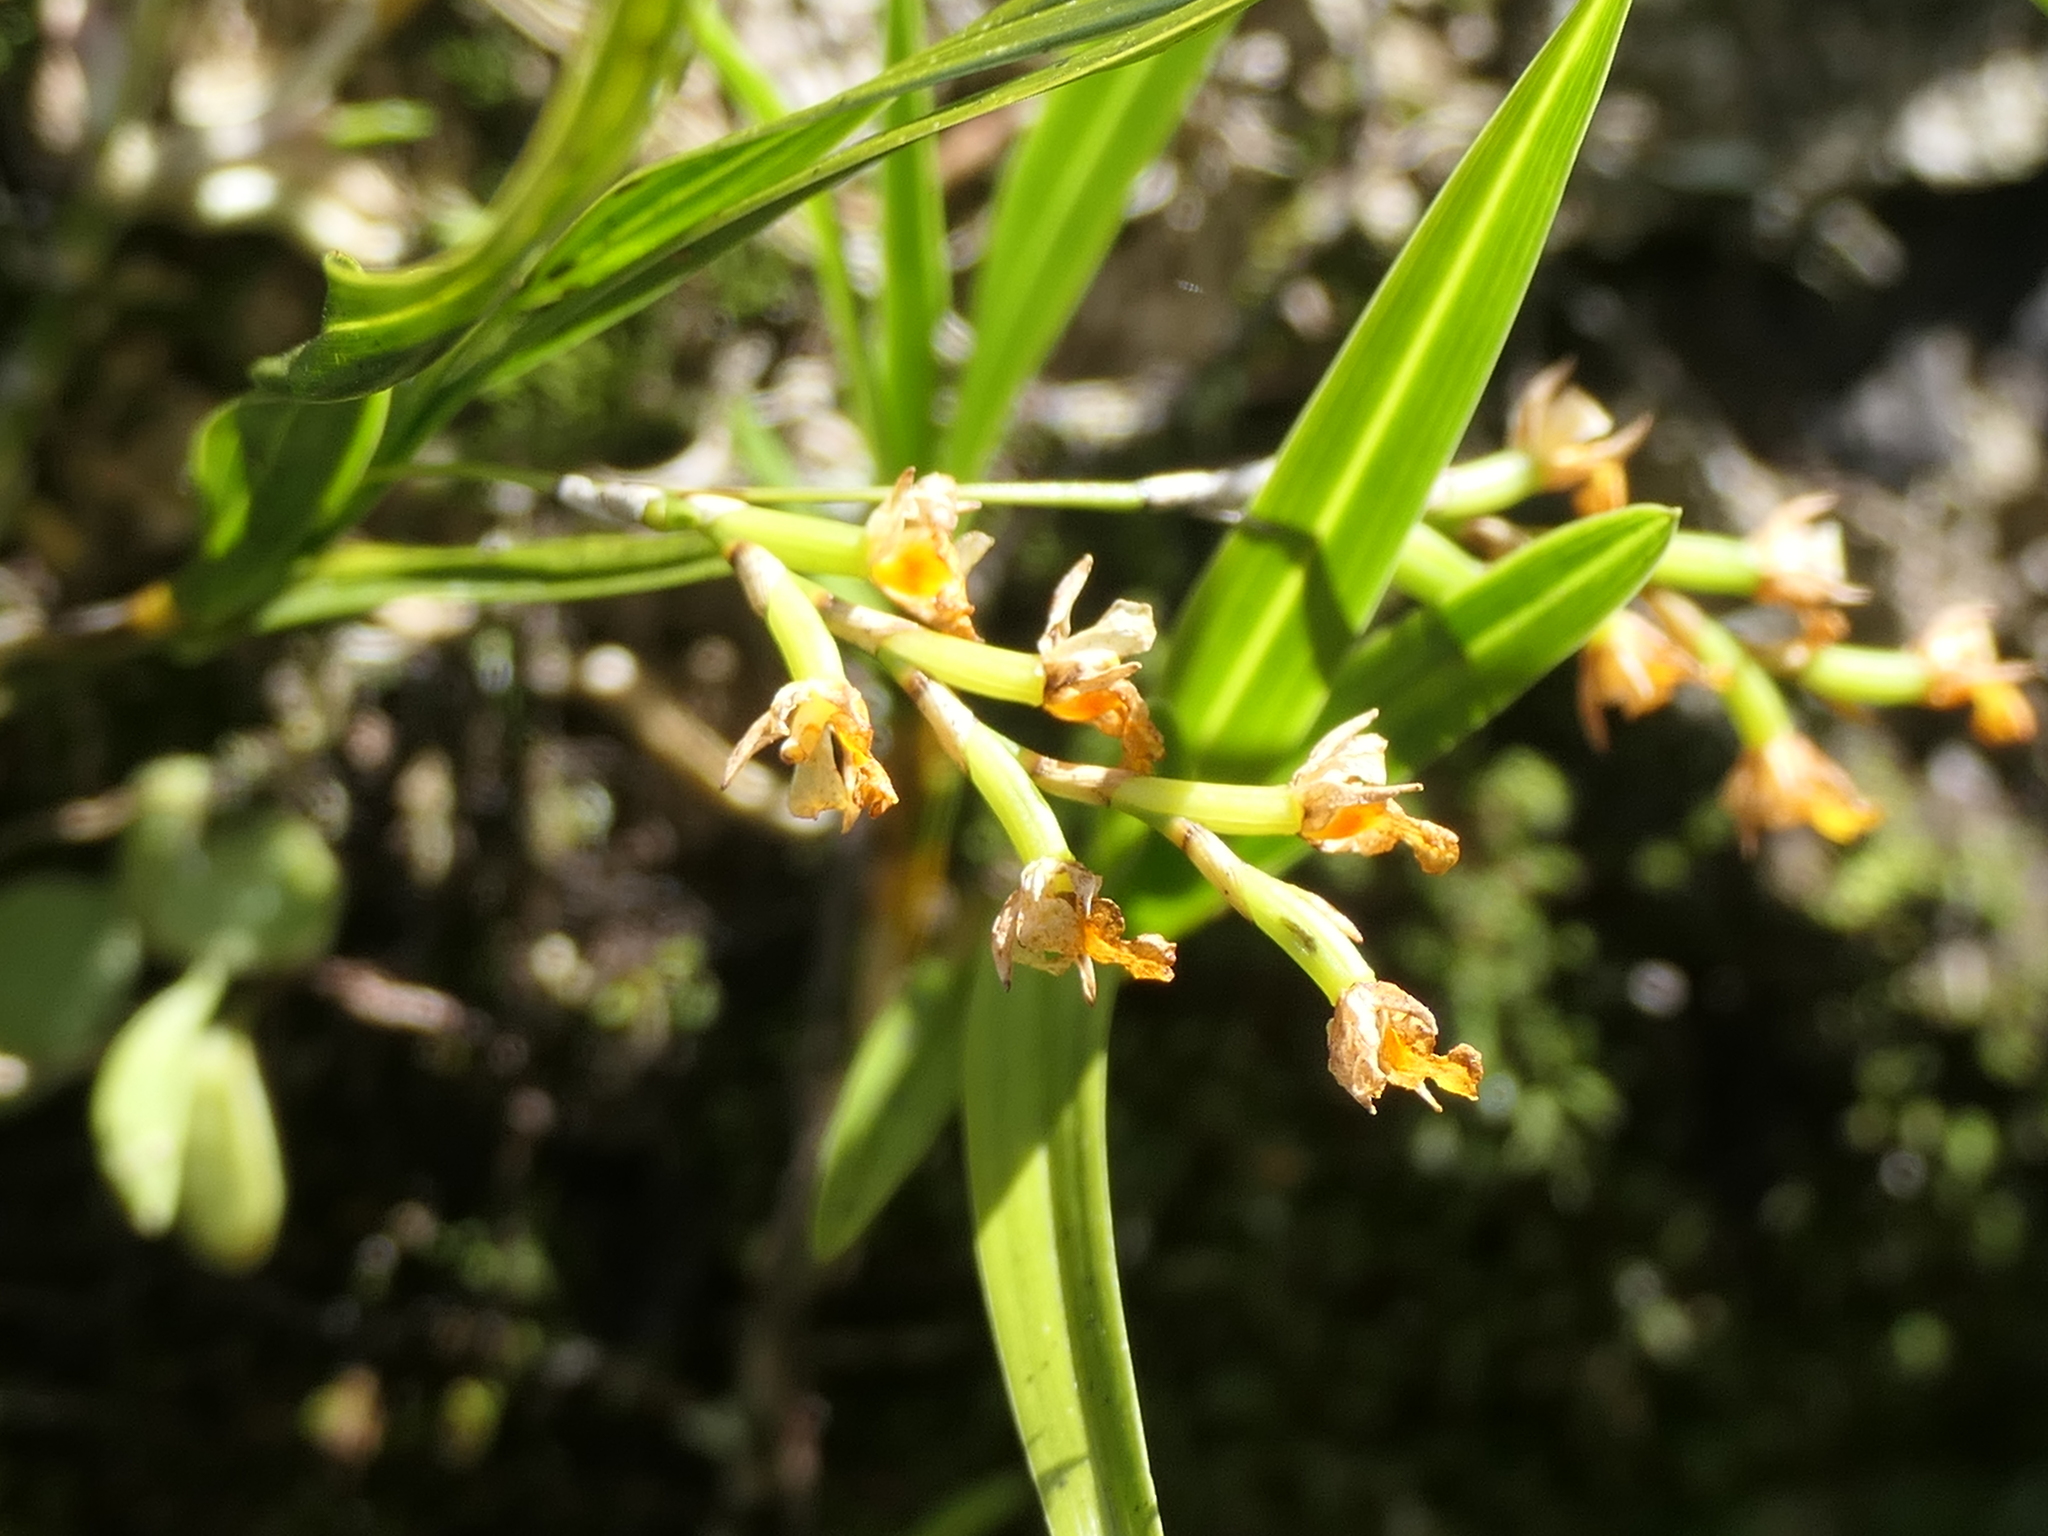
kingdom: Plantae
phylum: Tracheophyta
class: Liliopsida
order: Asparagales
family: Orchidaceae
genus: Earina
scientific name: Earina mucronata
